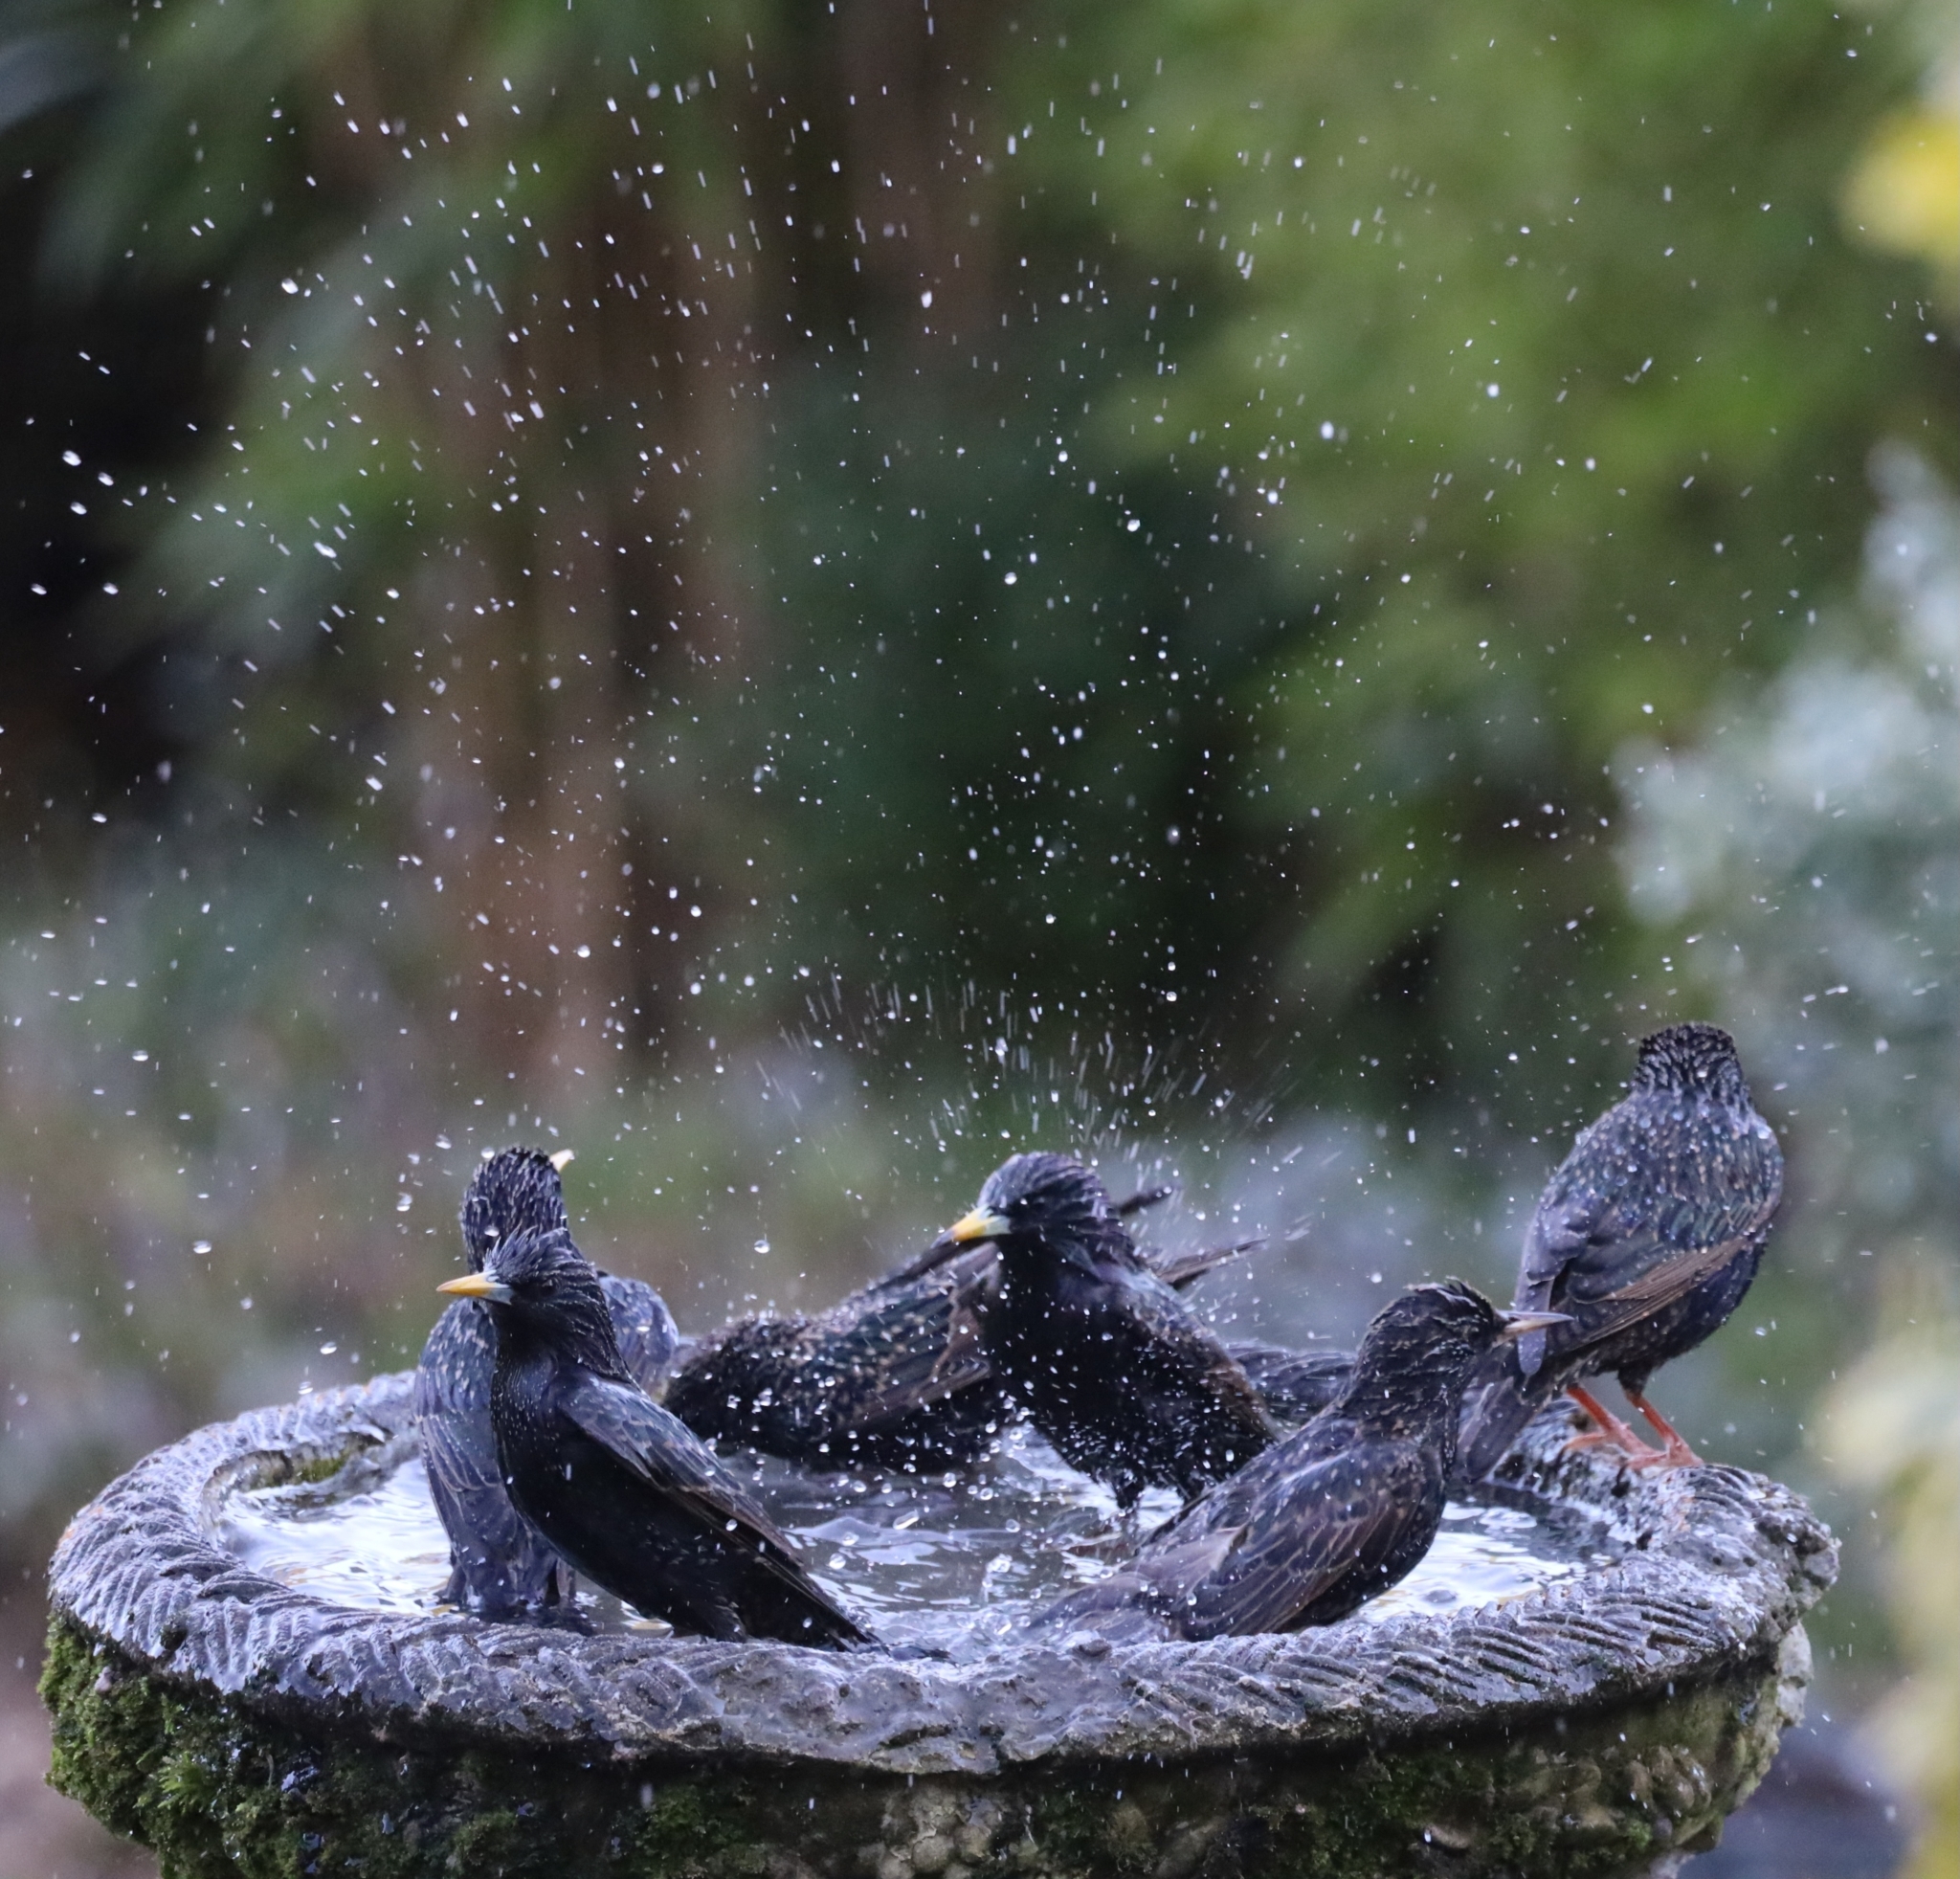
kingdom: Animalia
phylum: Chordata
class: Aves
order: Passeriformes
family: Sturnidae
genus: Sturnus
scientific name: Sturnus vulgaris
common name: Common starling
